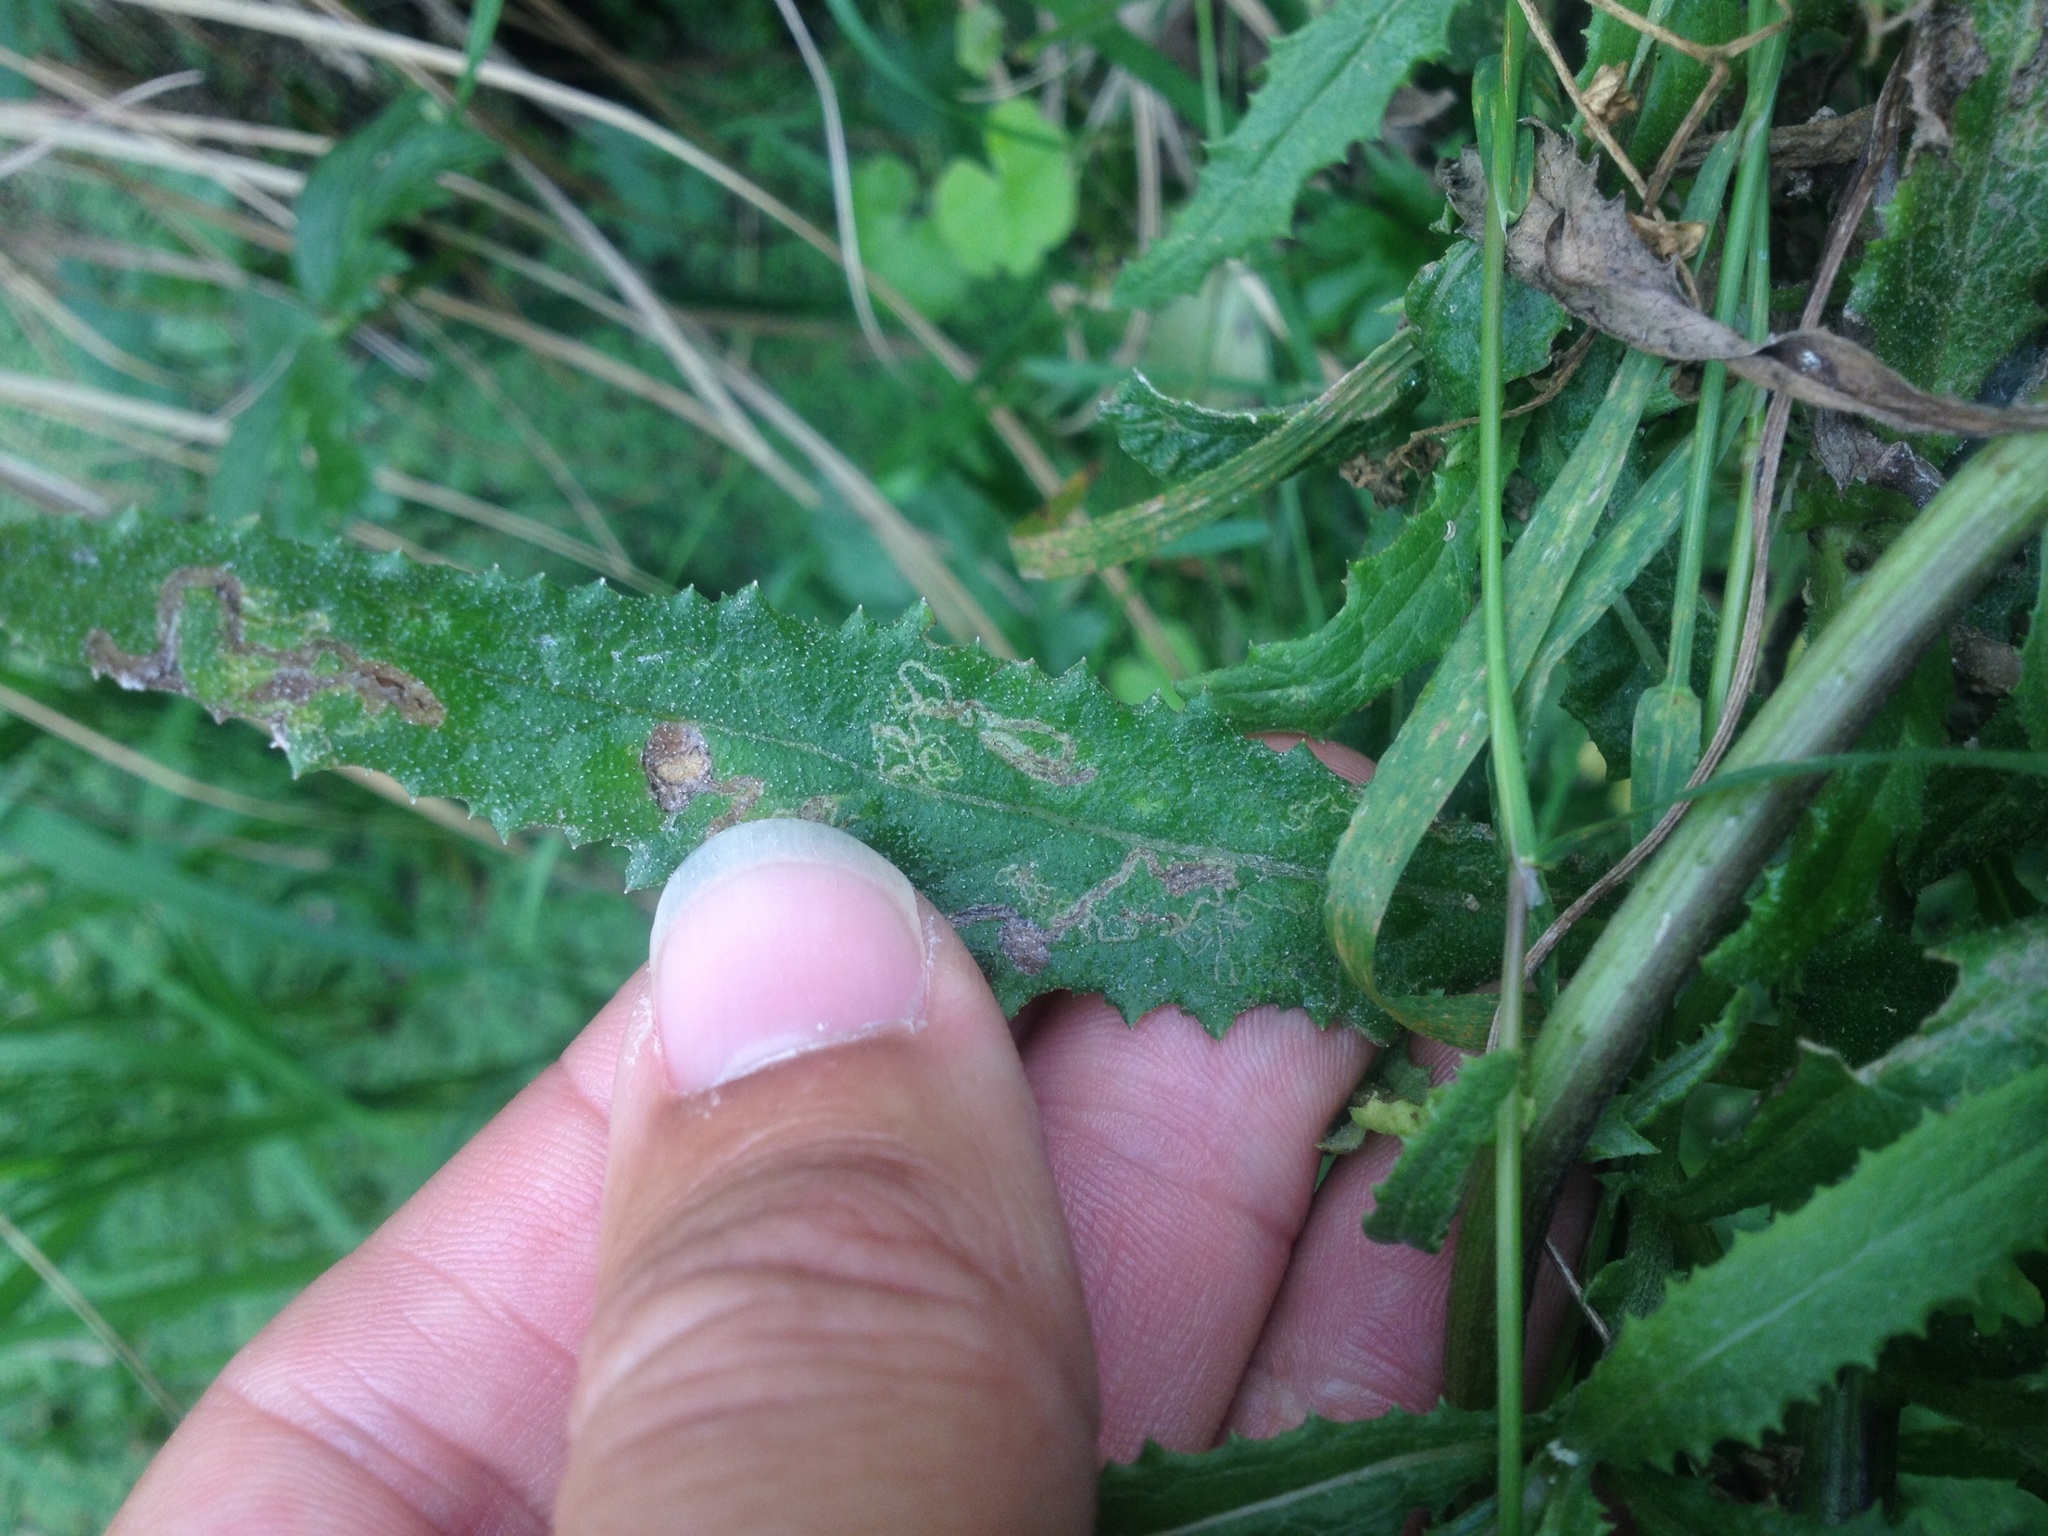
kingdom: Animalia
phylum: Arthropoda
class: Insecta
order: Lepidoptera
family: Nepticulidae
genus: Stigmella
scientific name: Stigmella ogygia
